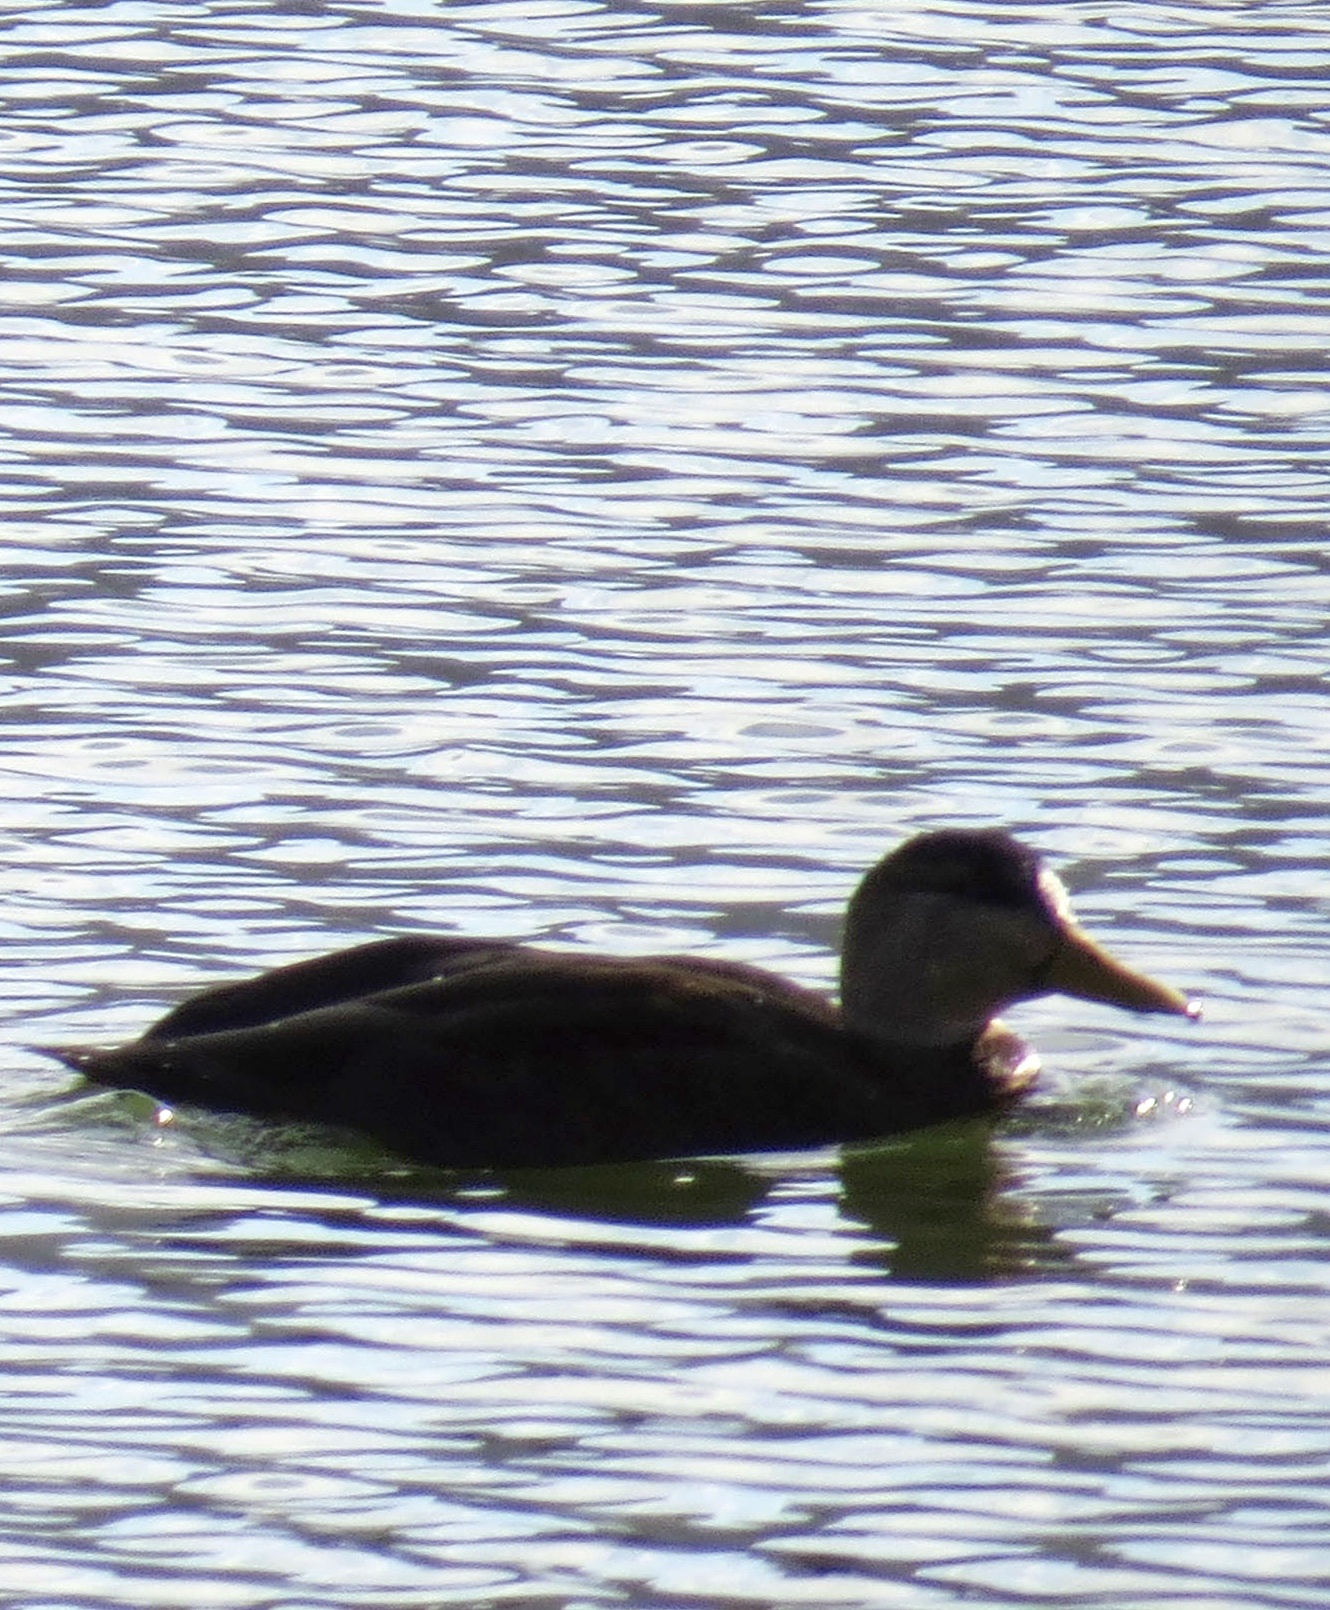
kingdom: Animalia
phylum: Chordata
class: Aves
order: Anseriformes
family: Anatidae
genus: Anas
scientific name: Anas rubripes
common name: American black duck
